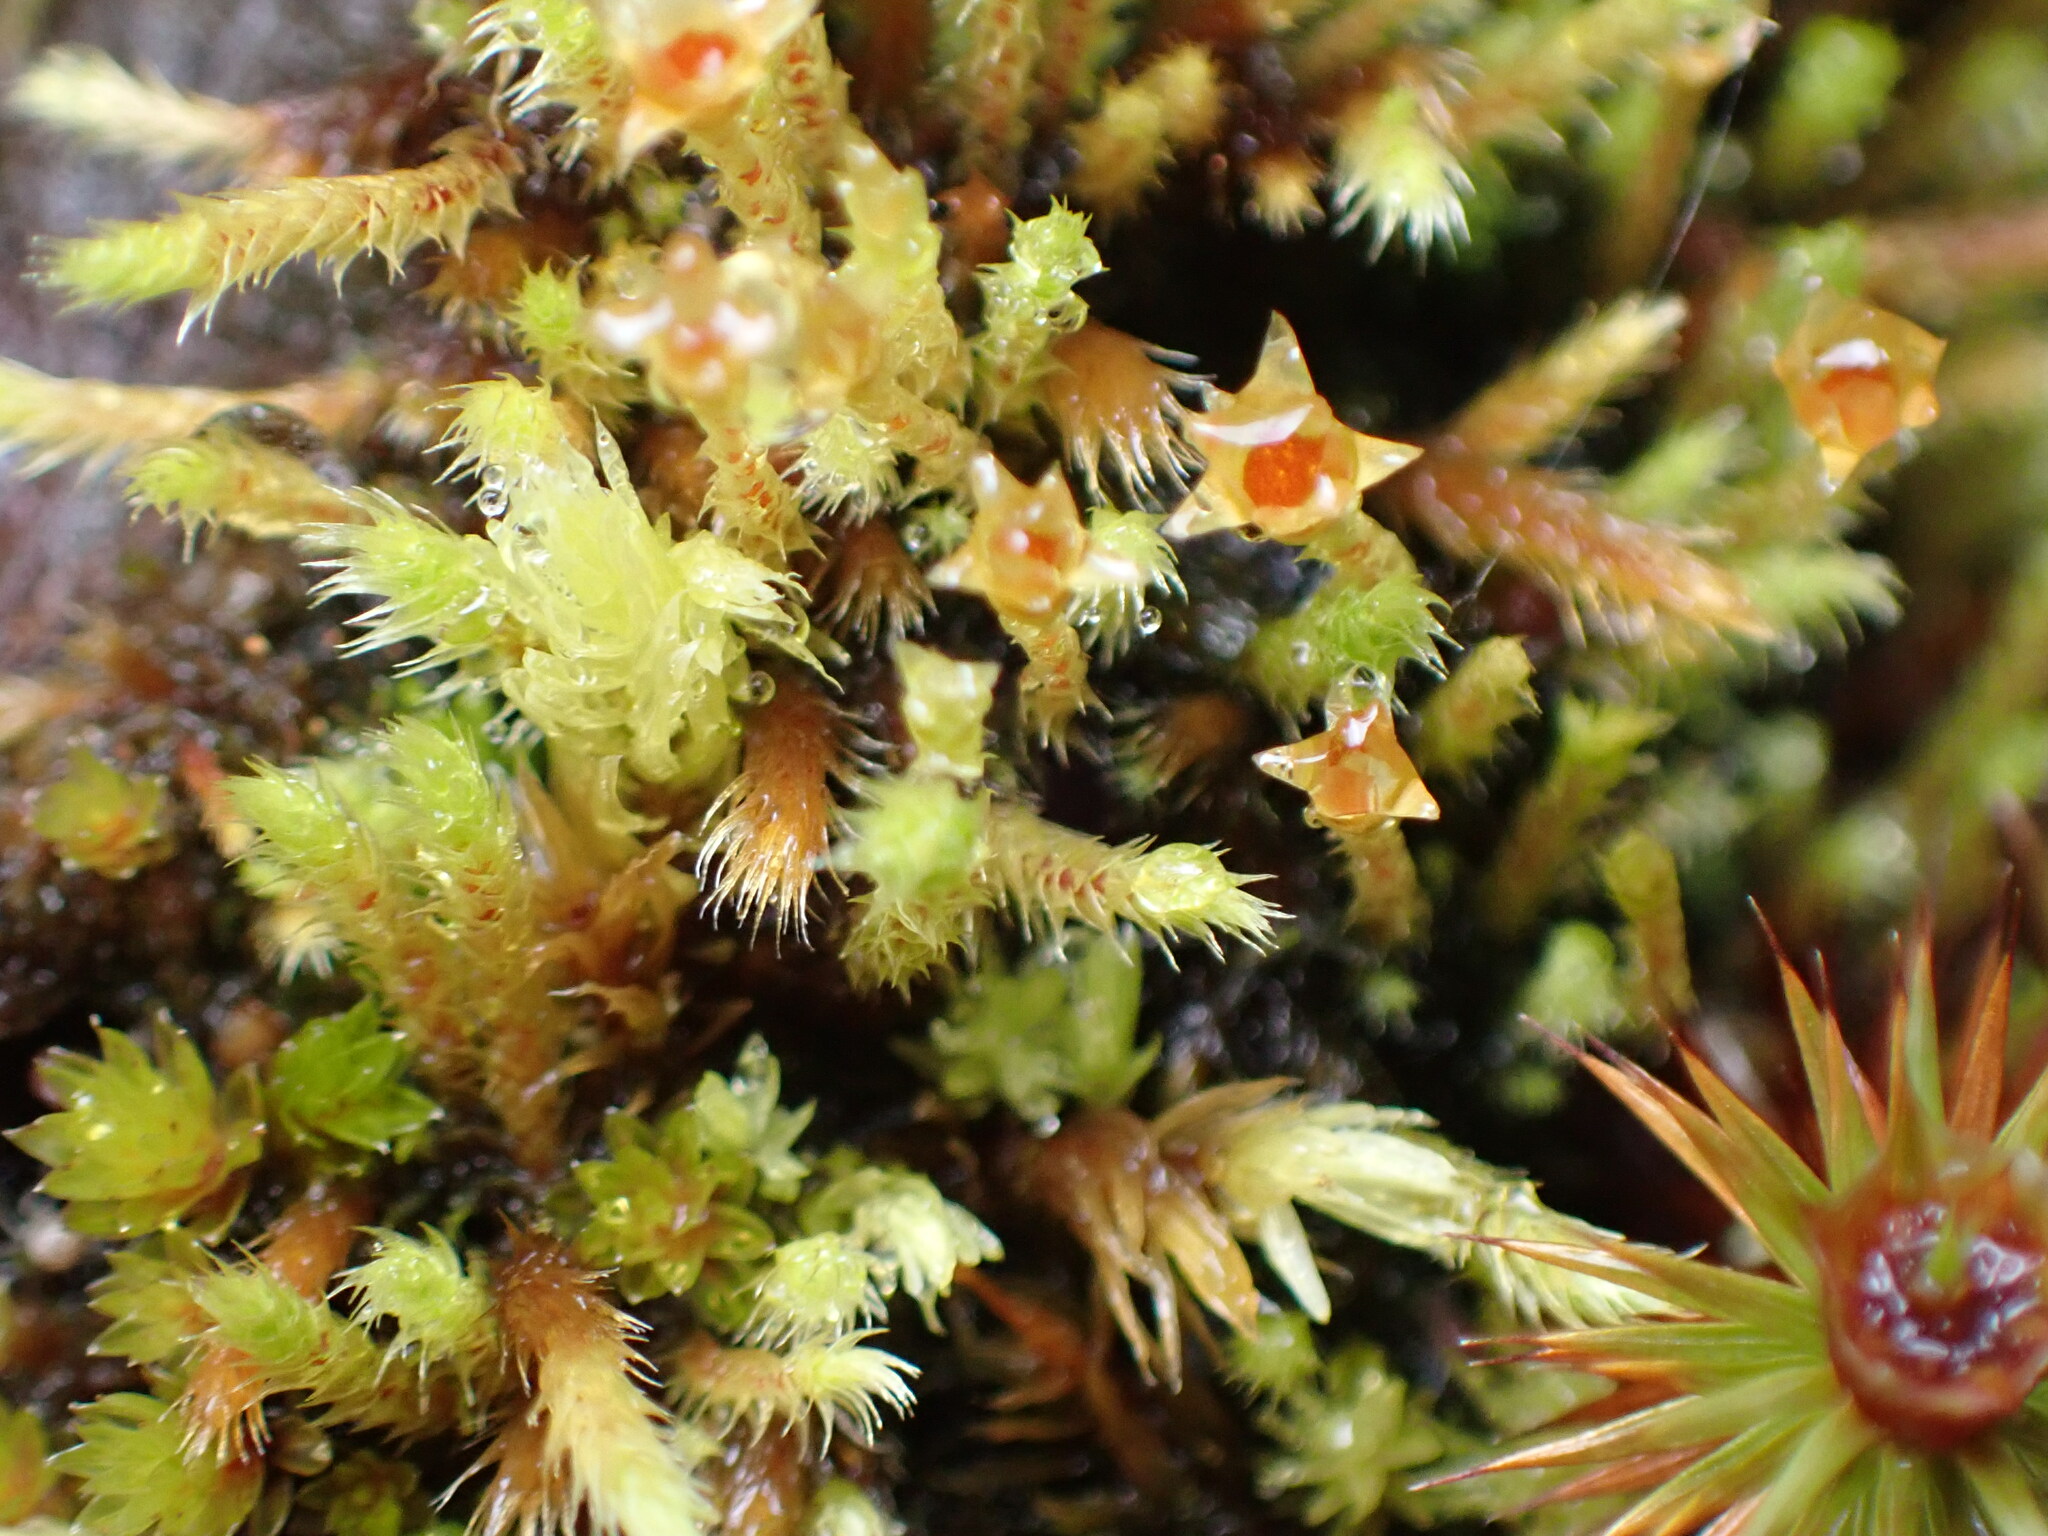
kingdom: Plantae
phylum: Bryophyta
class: Bryopsida
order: Bartramiales
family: Bartramiaceae
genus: Philonotis
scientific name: Philonotis capillaris
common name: Arnell's apple-moss
